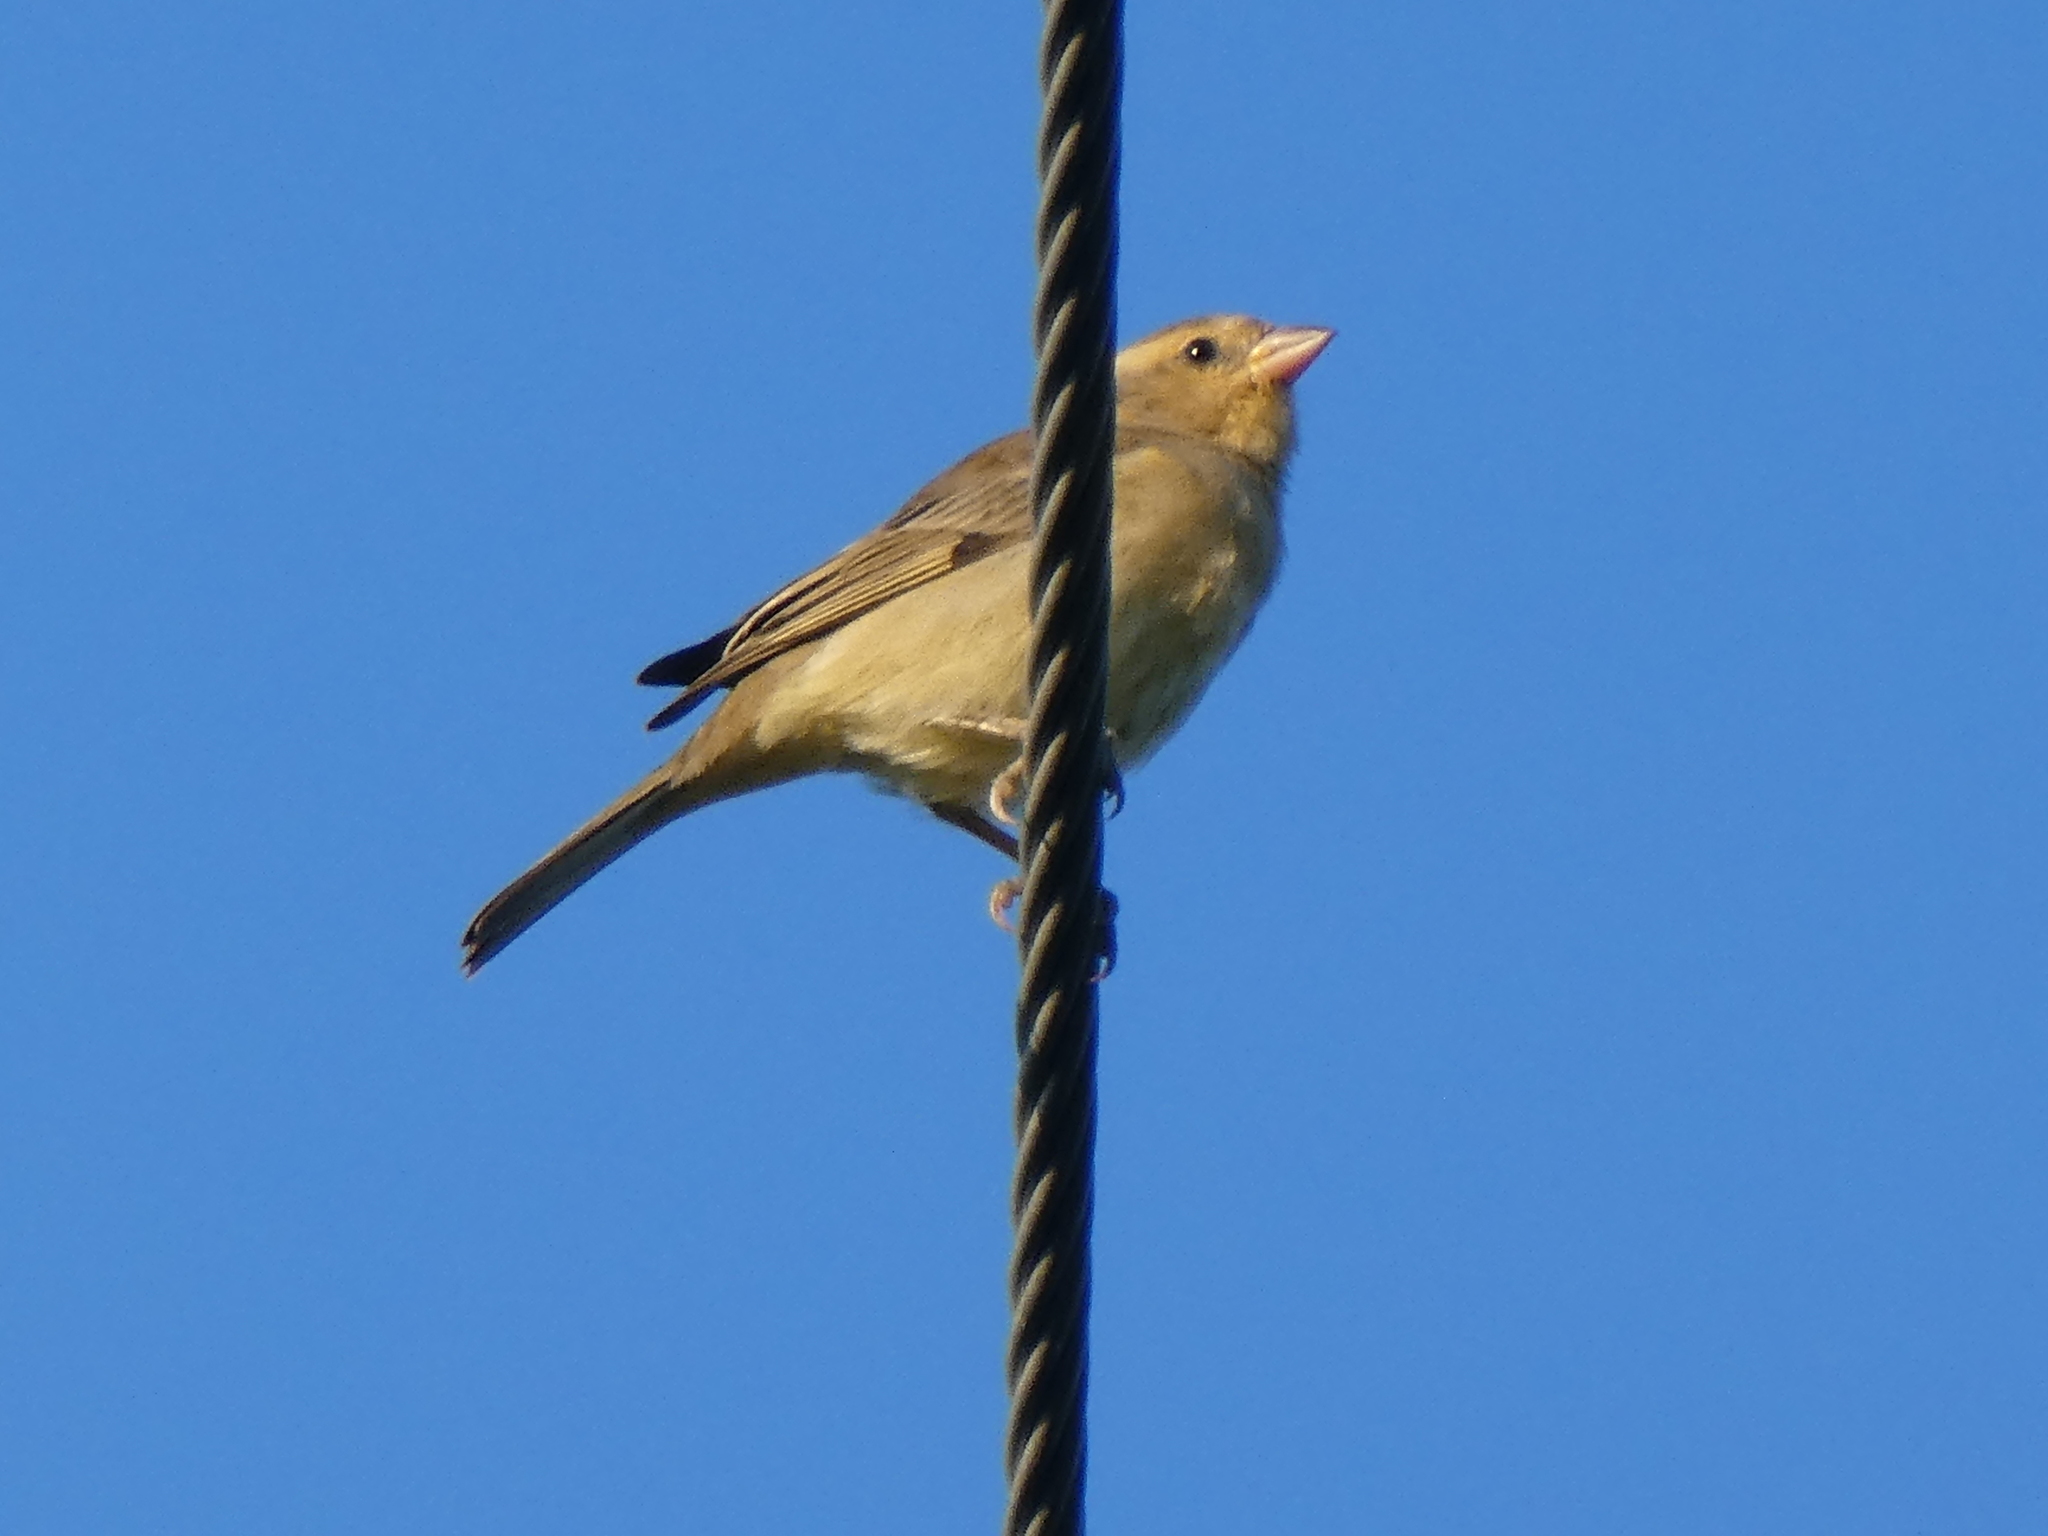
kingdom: Animalia
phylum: Chordata
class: Aves
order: Passeriformes
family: Passeridae
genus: Passer
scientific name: Passer flaveolus
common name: Plain-backed sparrow
